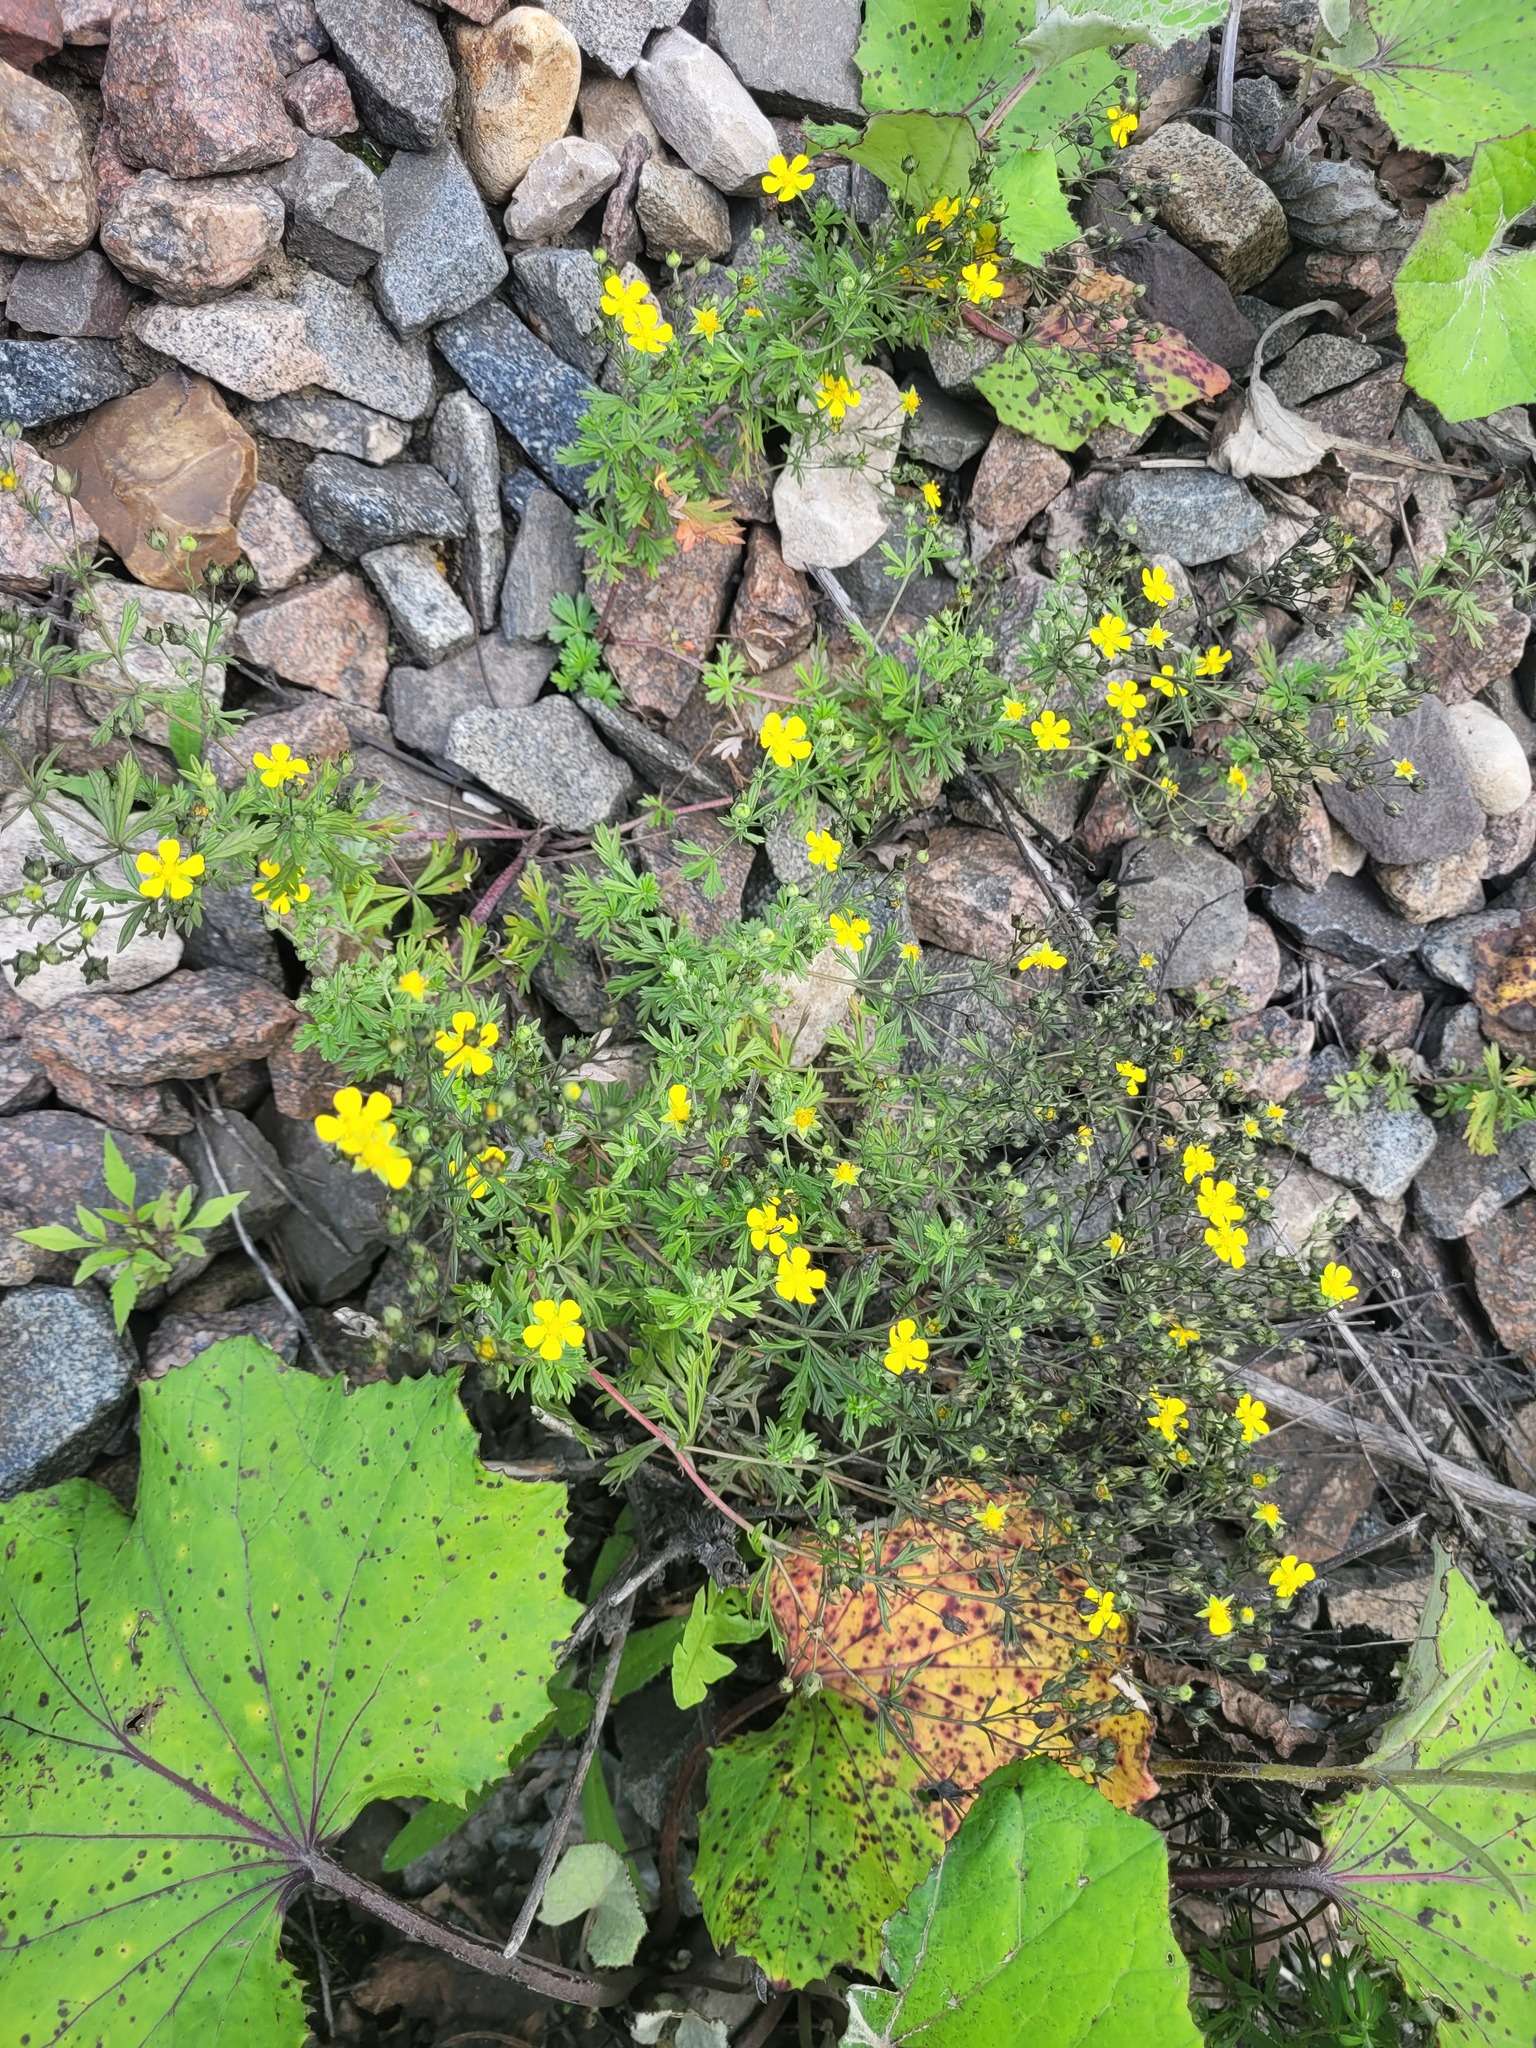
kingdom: Plantae
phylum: Tracheophyta
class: Magnoliopsida
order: Rosales
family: Rosaceae
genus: Potentilla
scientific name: Potentilla argentea
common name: Hoary cinquefoil
